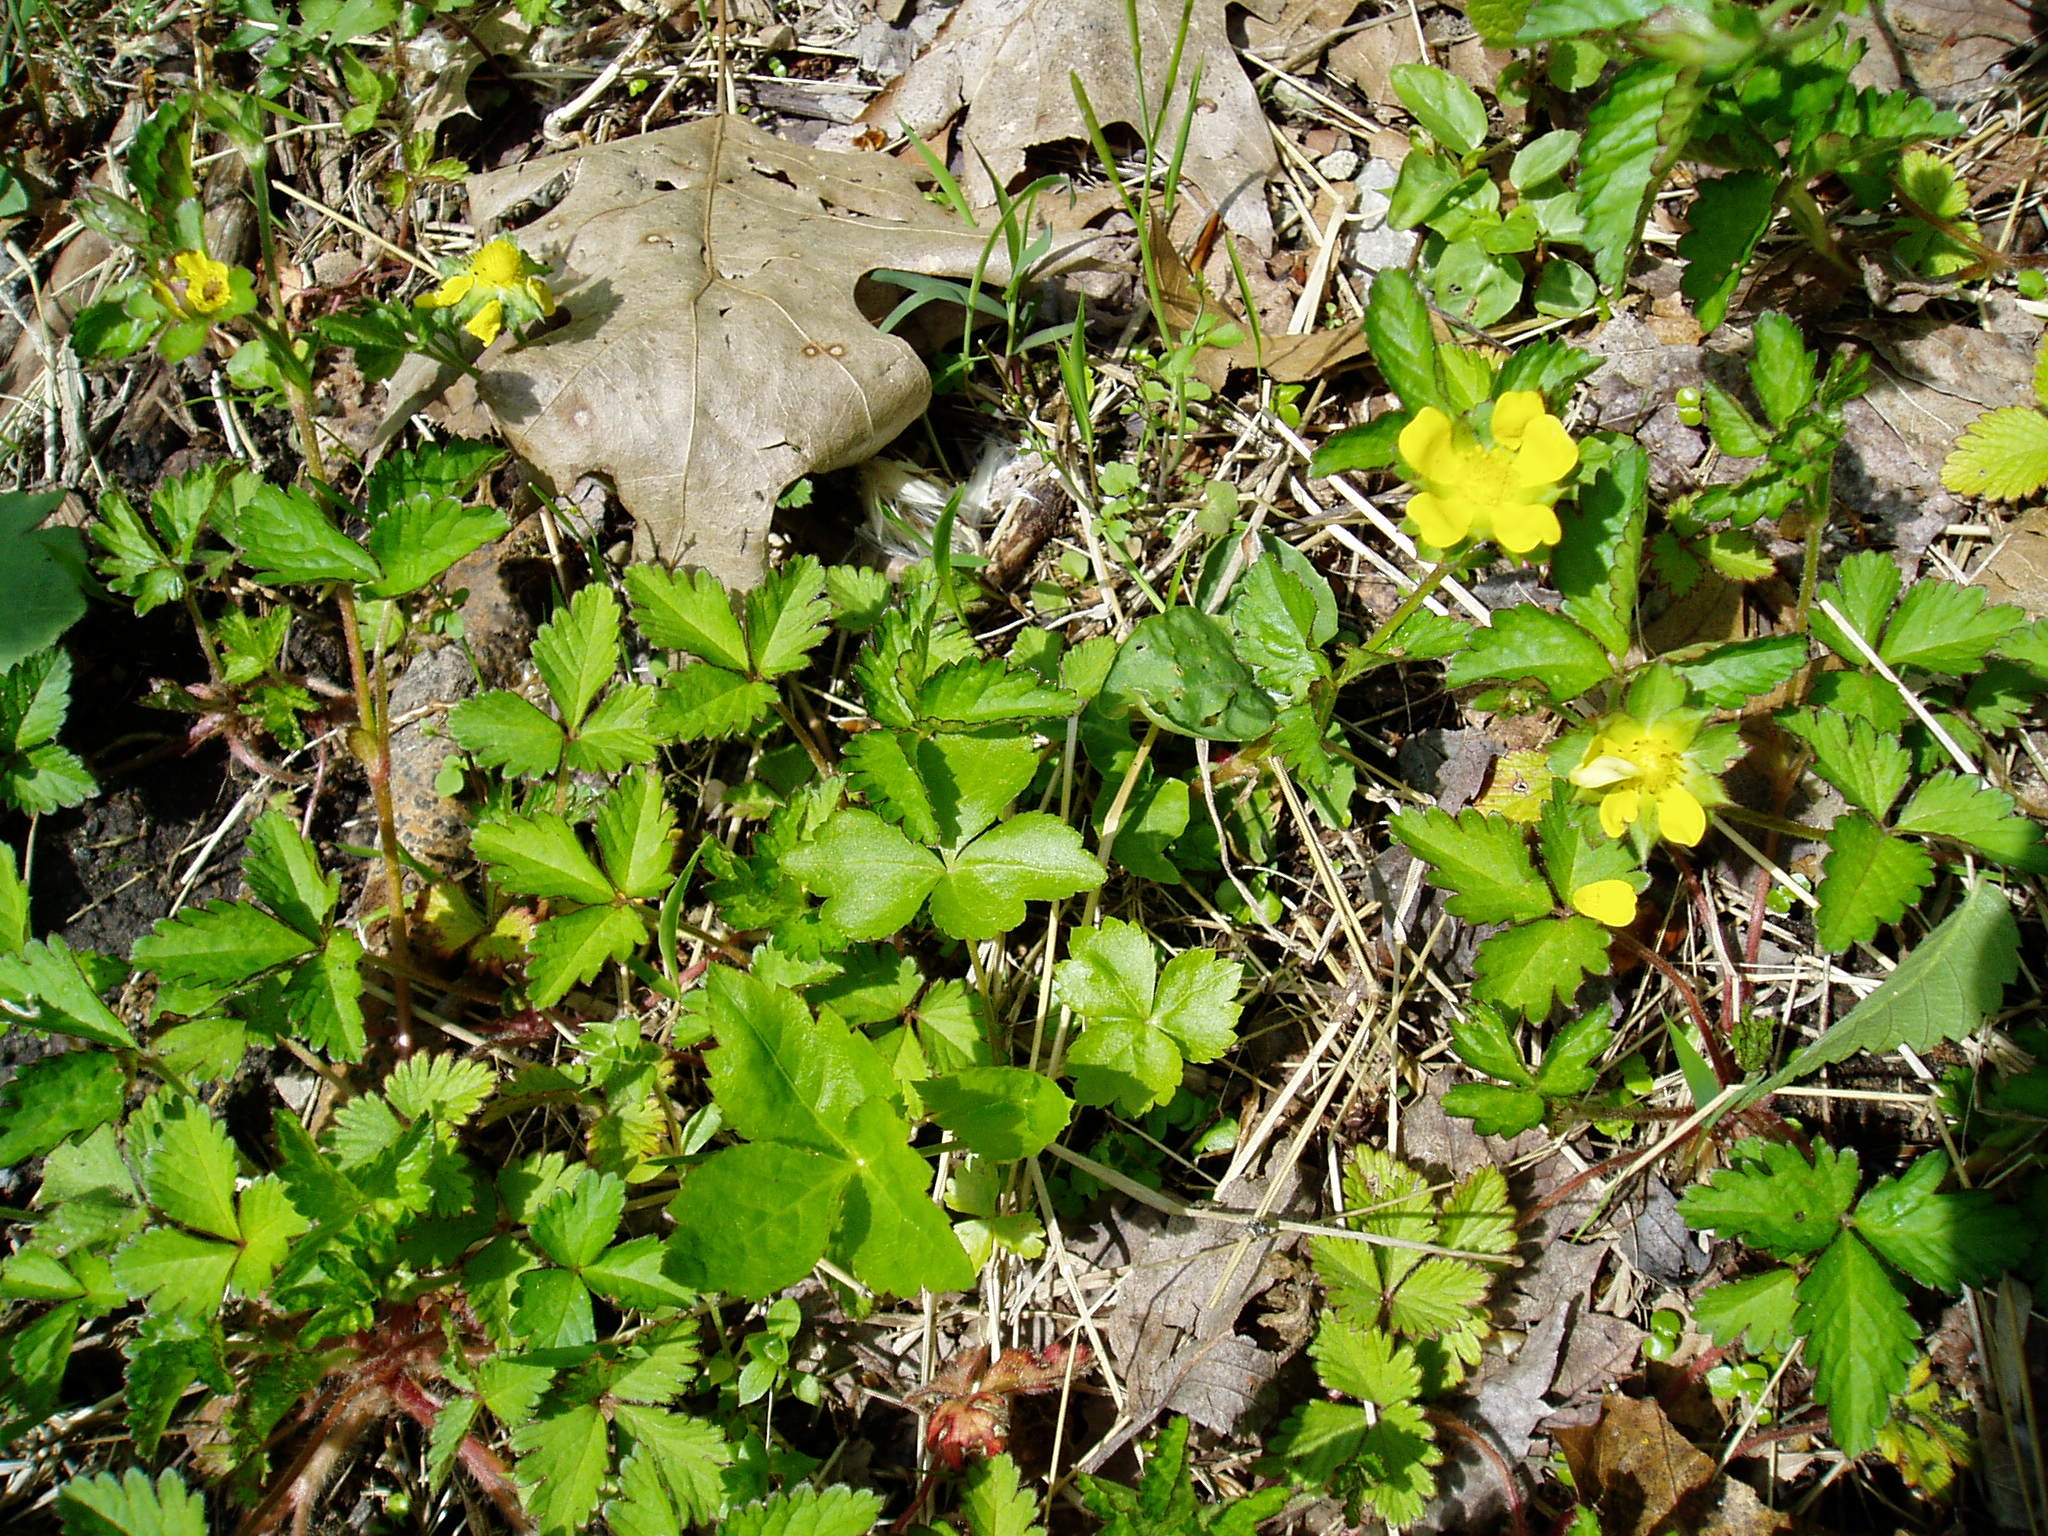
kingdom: Plantae
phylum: Tracheophyta
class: Magnoliopsida
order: Rosales
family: Rosaceae
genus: Potentilla
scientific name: Potentilla indica
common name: Yellow-flowered strawberry
